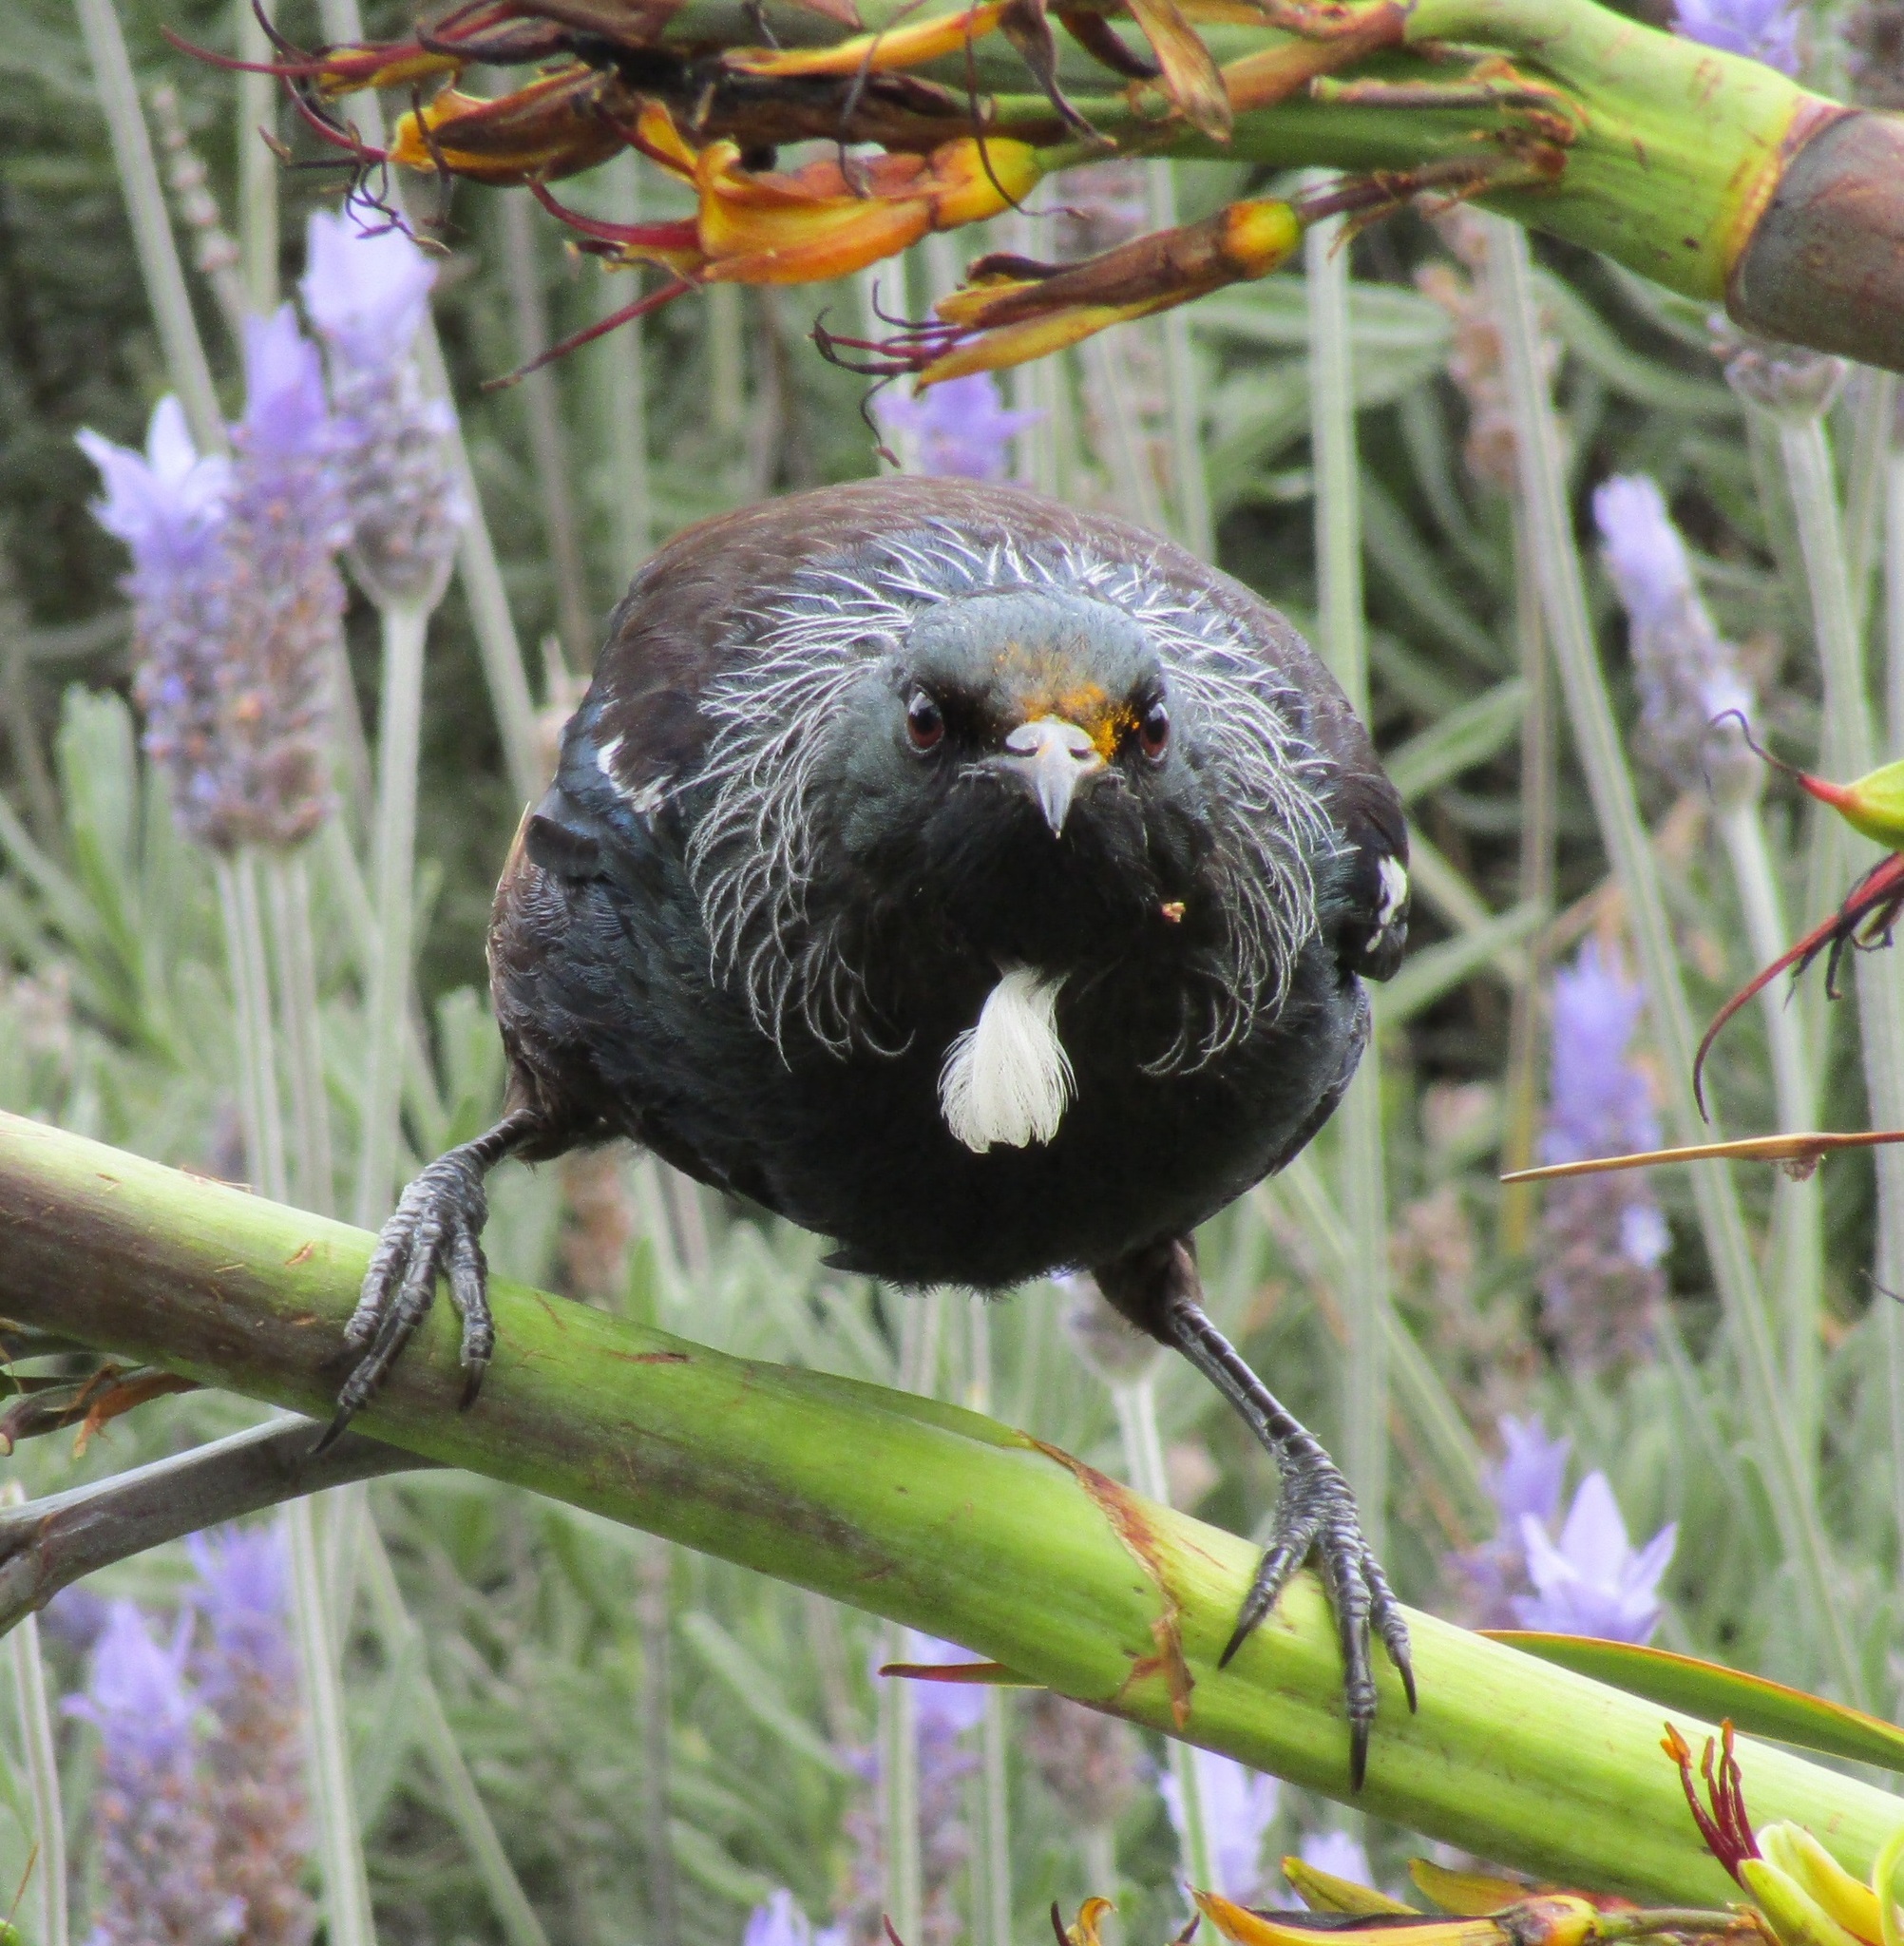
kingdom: Animalia
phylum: Chordata
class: Aves
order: Passeriformes
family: Meliphagidae
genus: Prosthemadera
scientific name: Prosthemadera novaeseelandiae
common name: Tui
